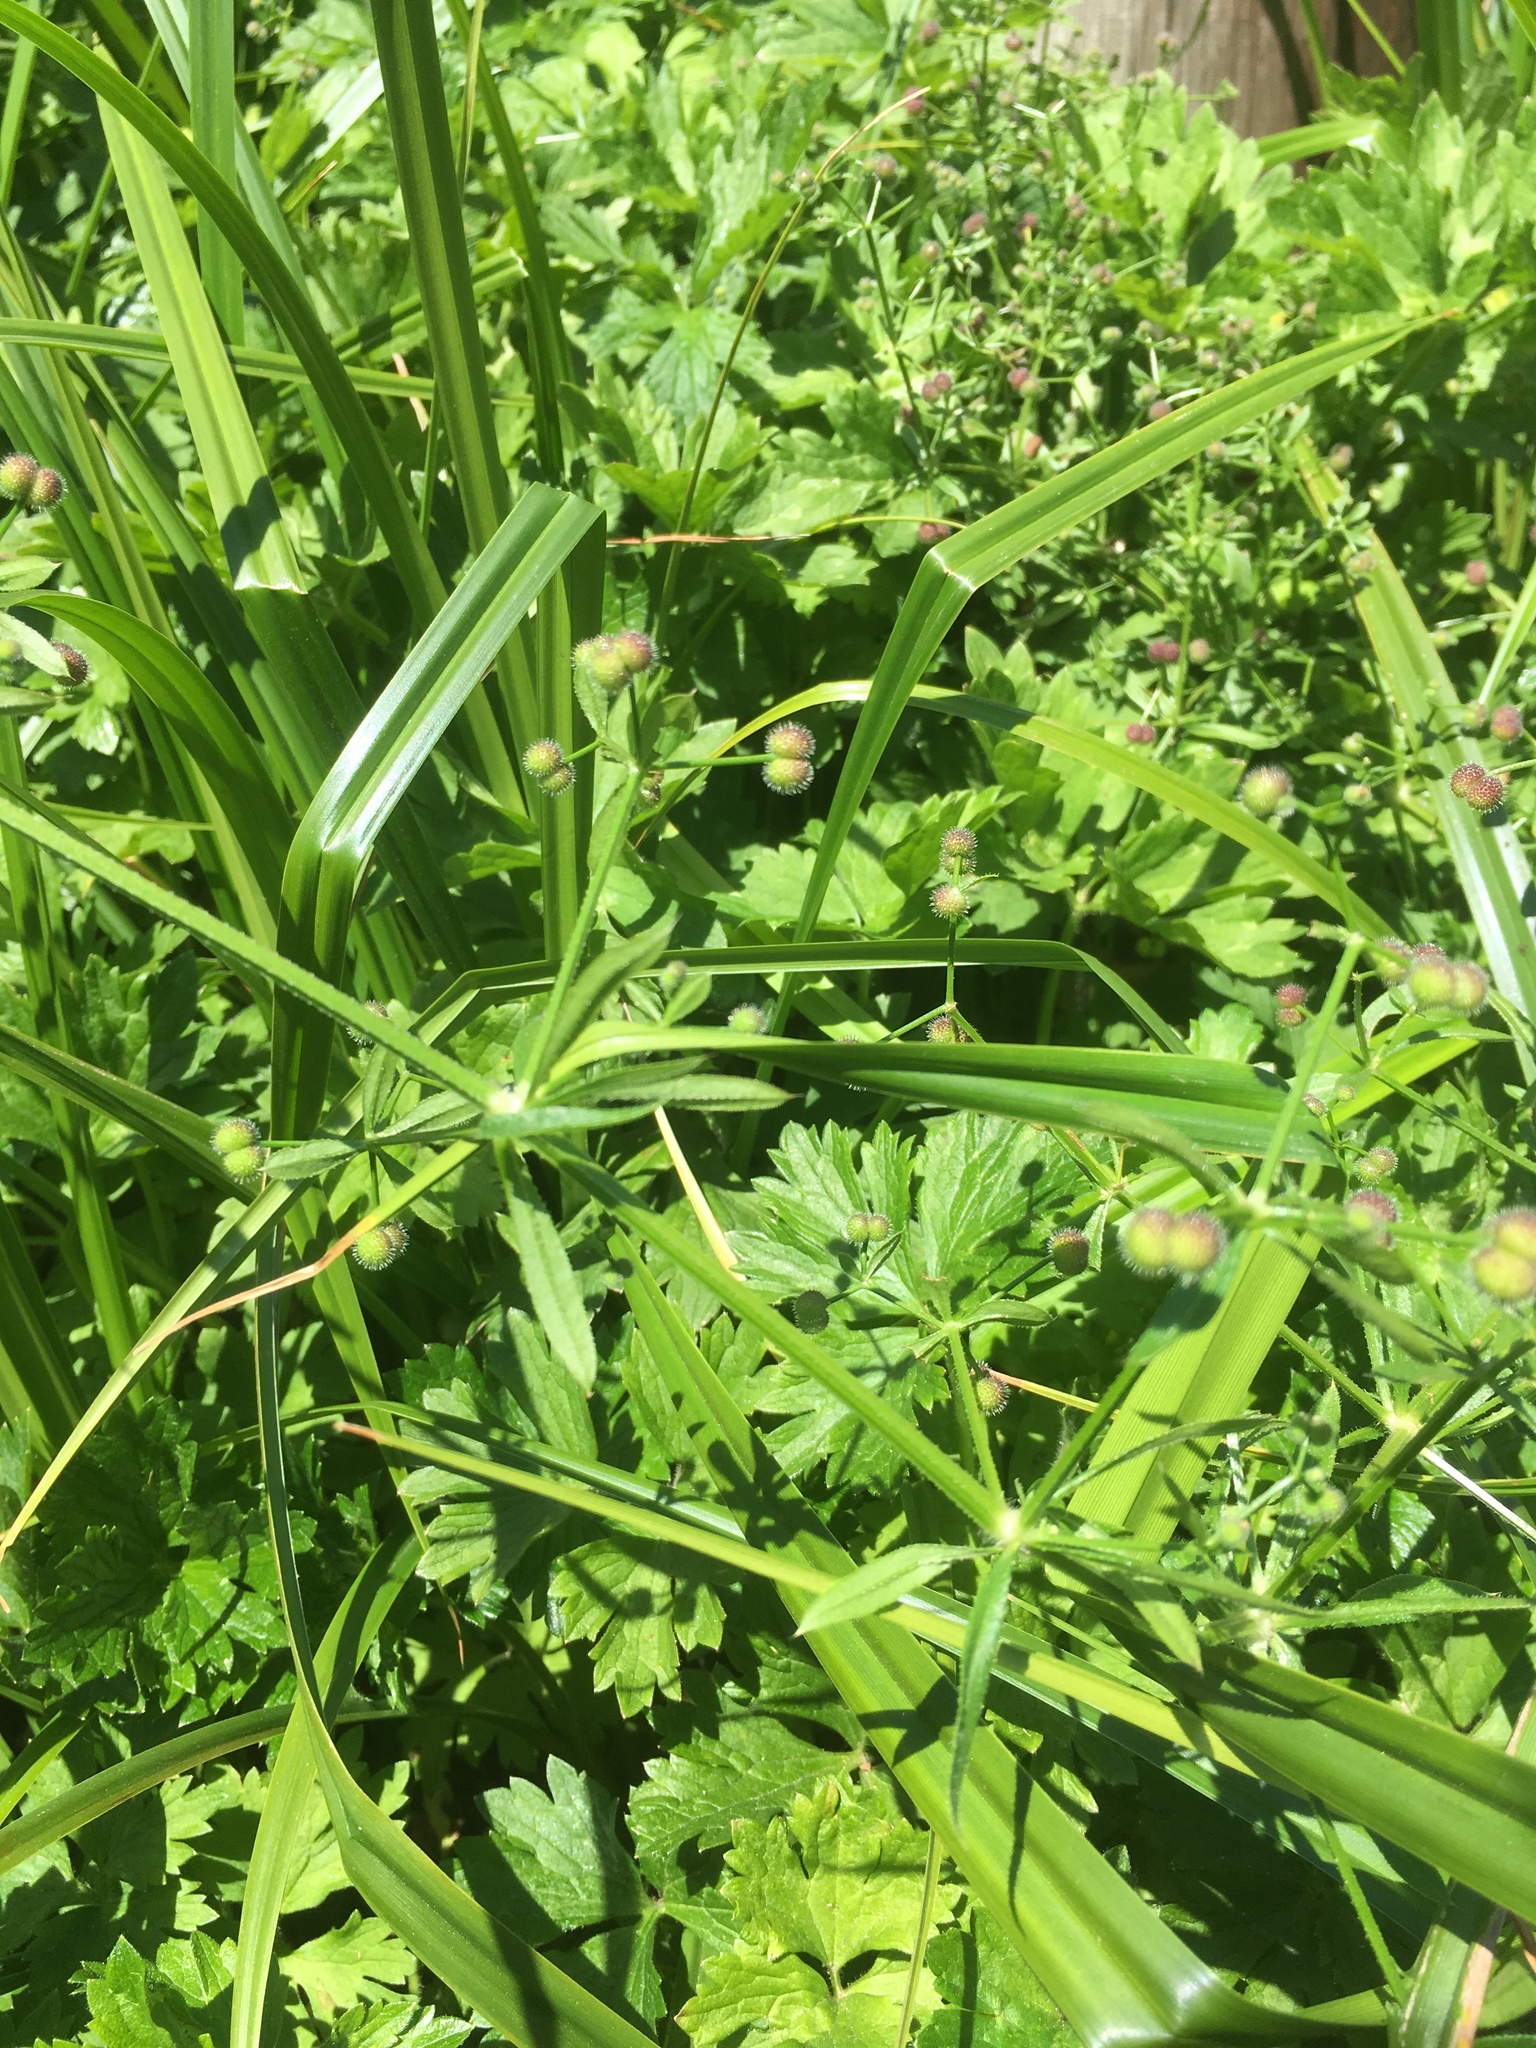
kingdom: Plantae
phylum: Tracheophyta
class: Magnoliopsida
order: Gentianales
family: Rubiaceae
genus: Galium
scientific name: Galium aparine
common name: Cleavers
